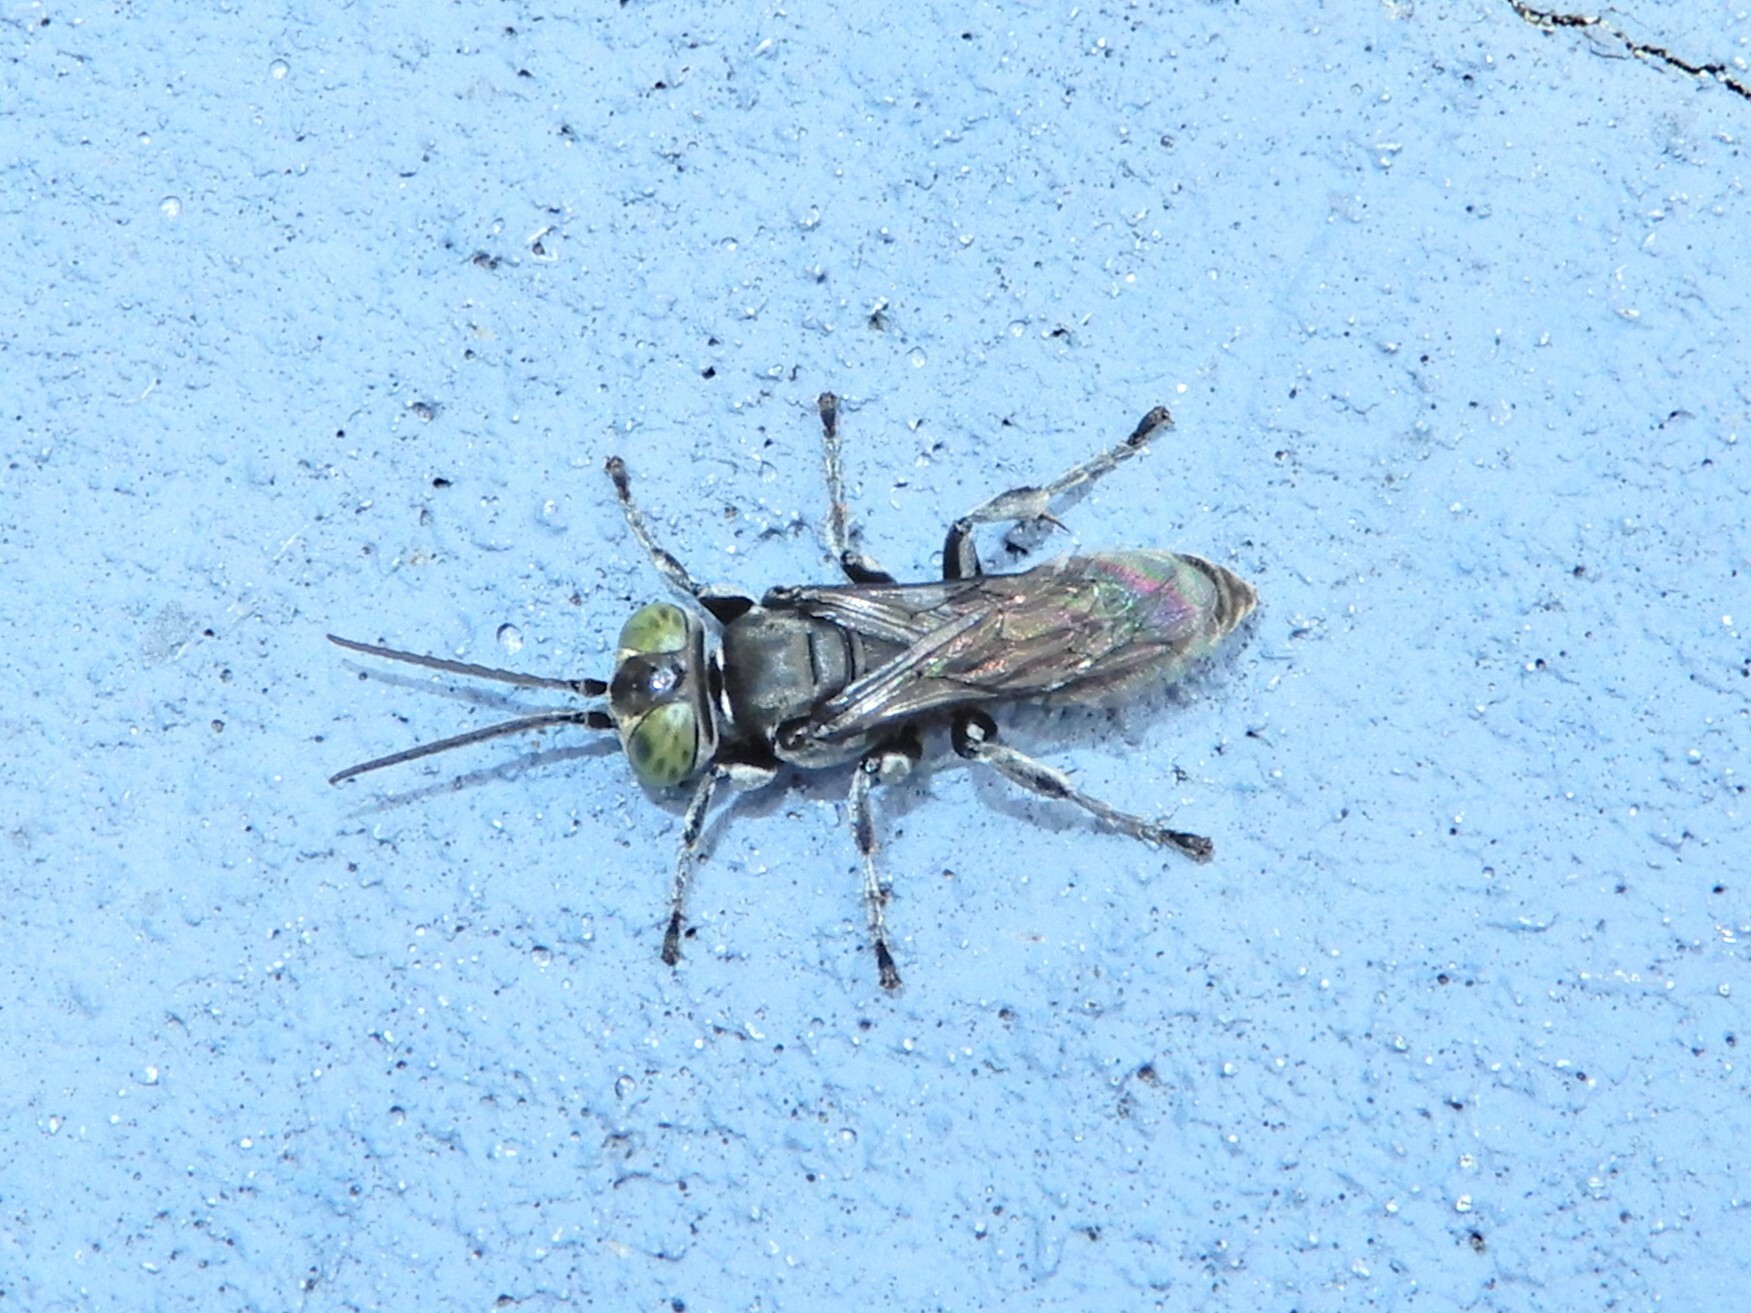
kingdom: Animalia
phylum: Arthropoda
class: Insecta
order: Hymenoptera
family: Crabronidae
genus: Tachysphex
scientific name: Tachysphex nigerrimus
